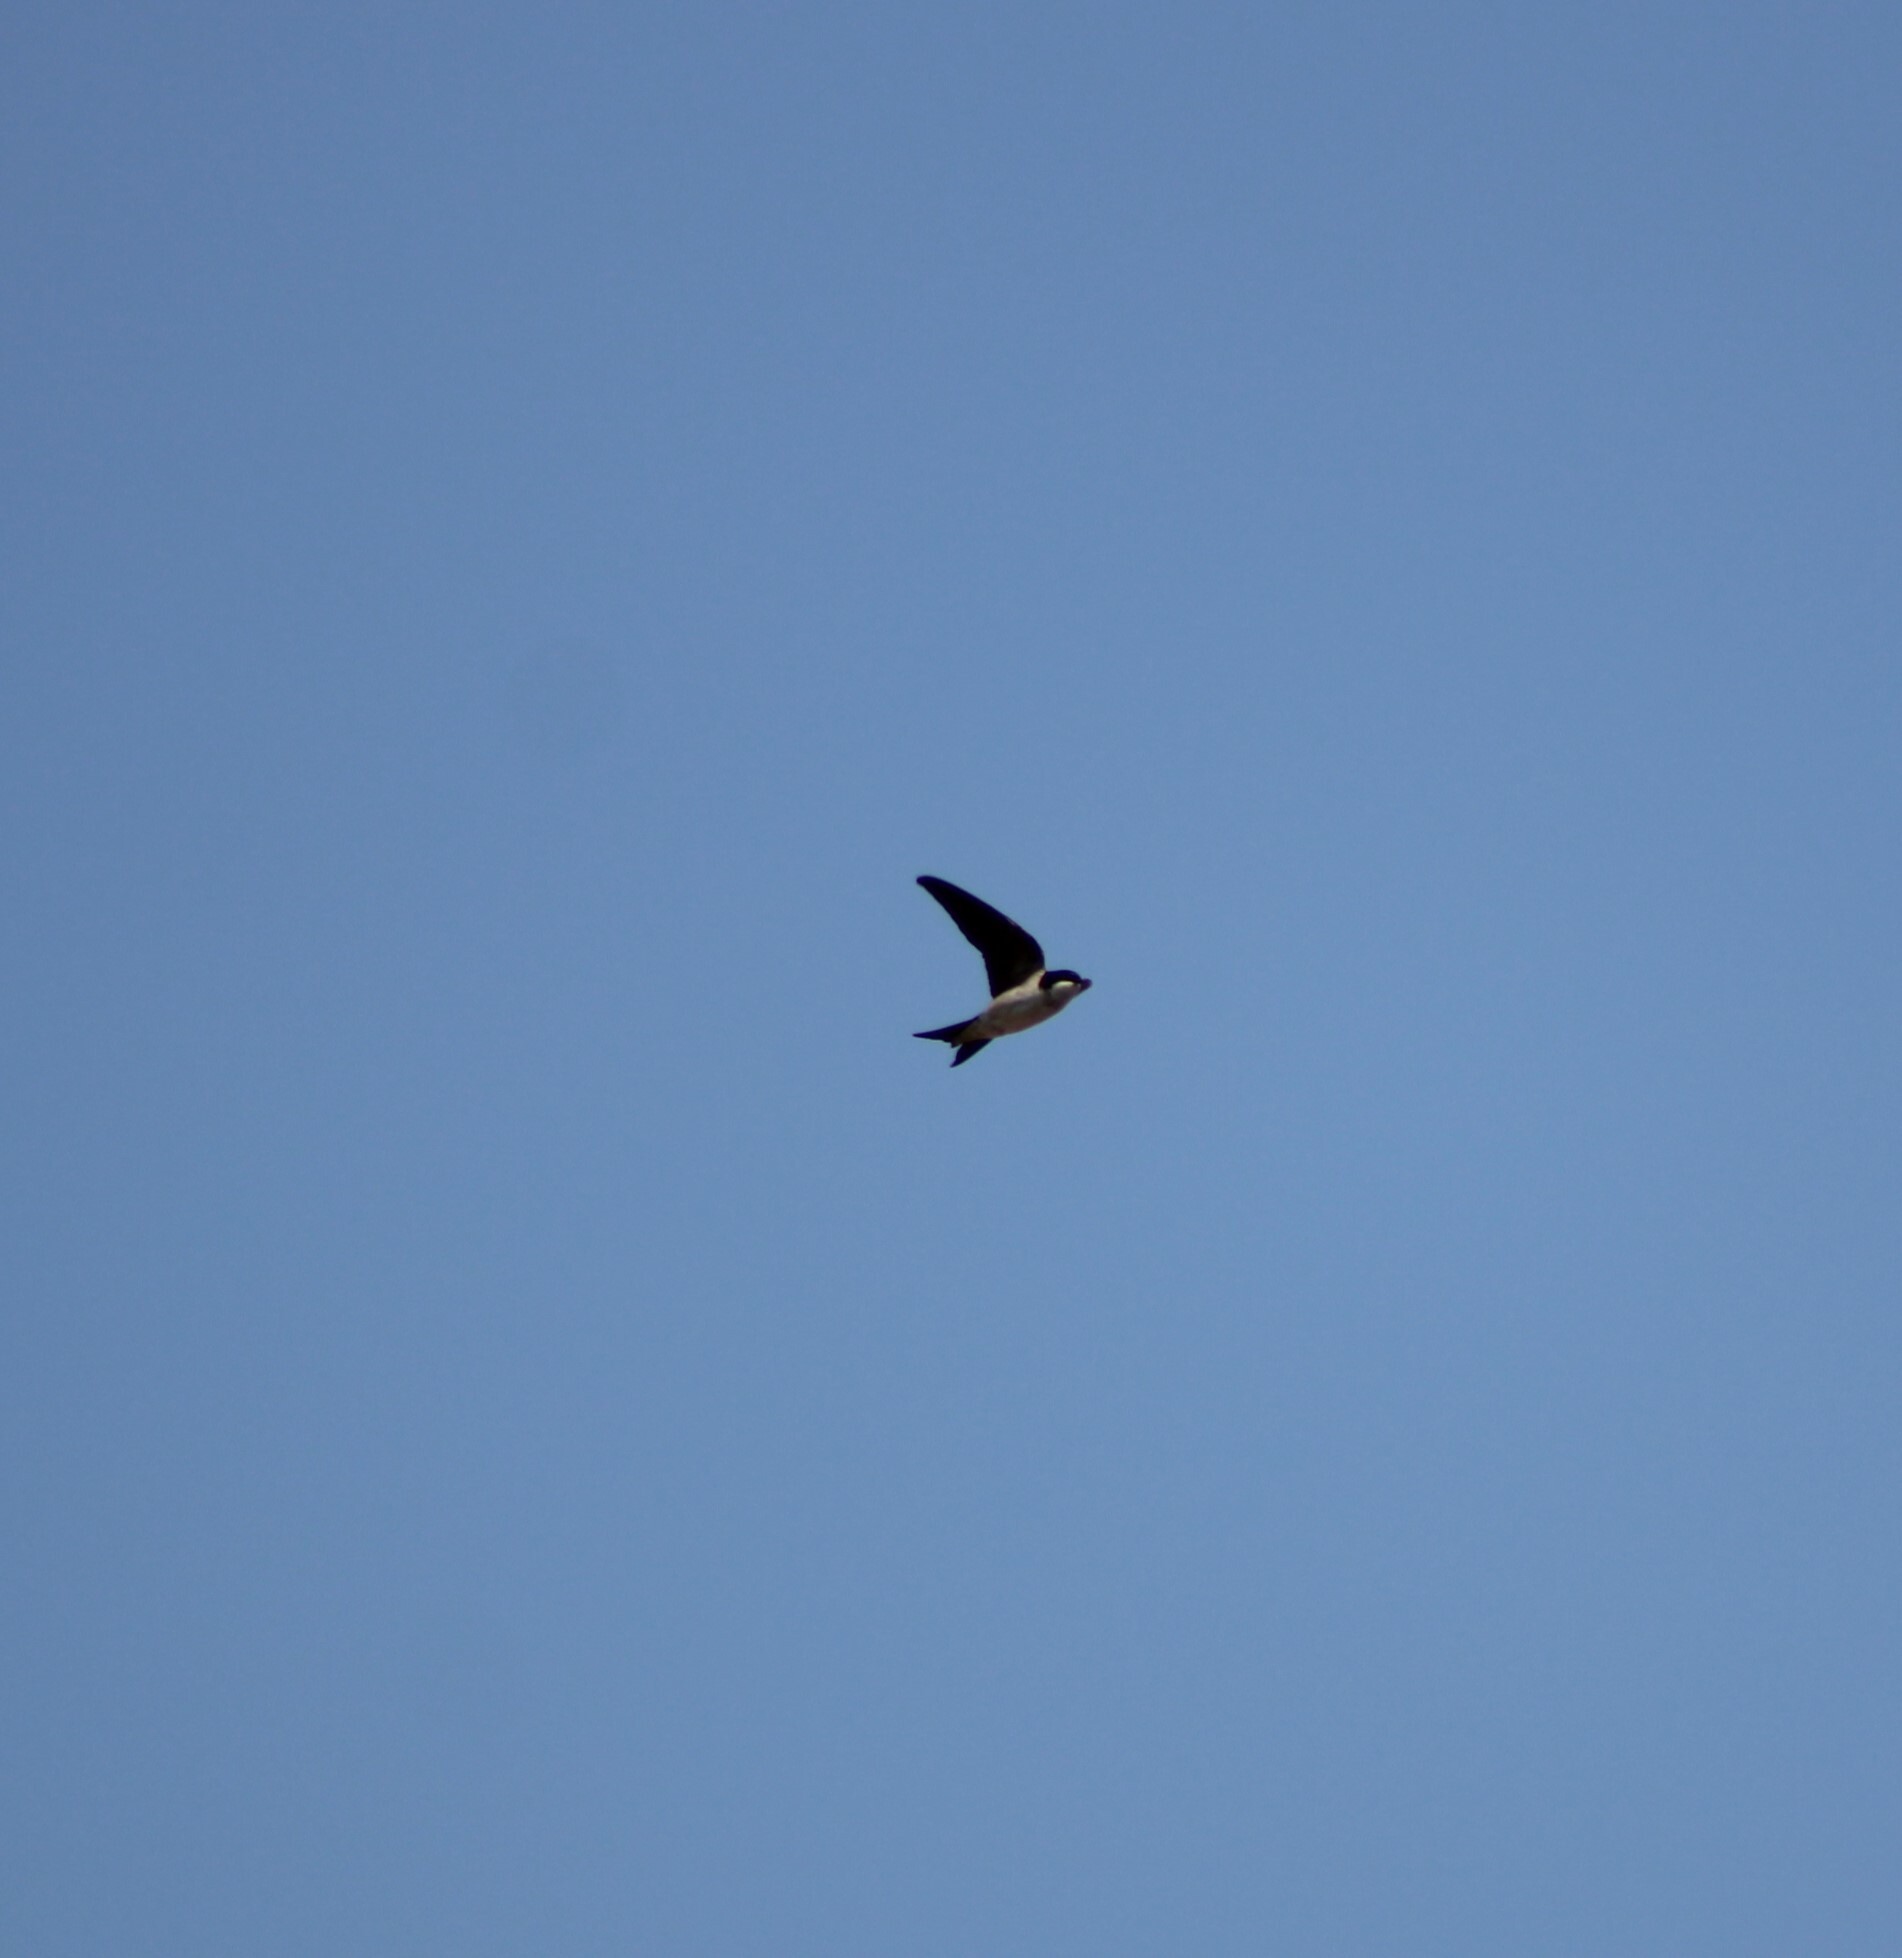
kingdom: Animalia
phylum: Chordata
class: Aves
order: Passeriformes
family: Hirundinidae
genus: Delichon
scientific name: Delichon urbicum
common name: Common house martin
